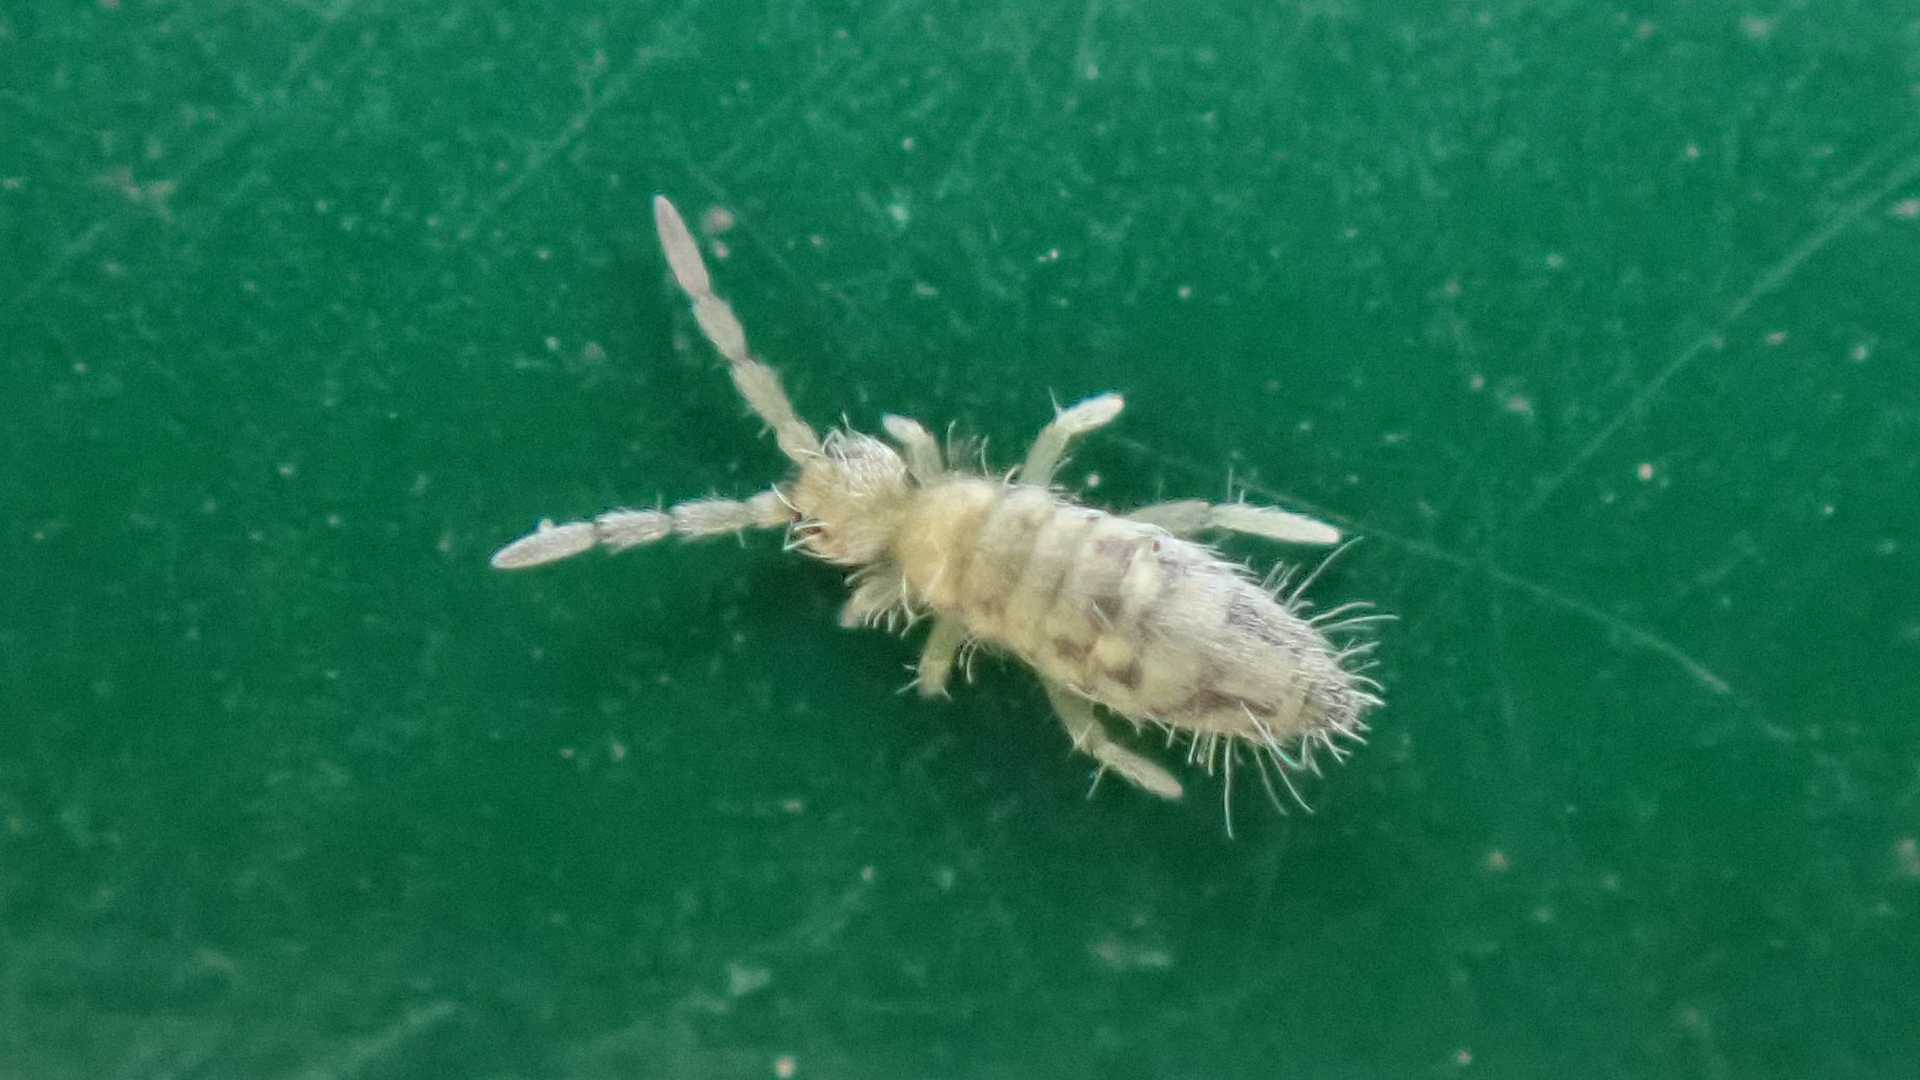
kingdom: Animalia
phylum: Arthropoda
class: Collembola
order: Entomobryomorpha
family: Entomobryidae
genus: Entomobrya
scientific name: Entomobrya nivalis
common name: Cosmopolitan springtail
